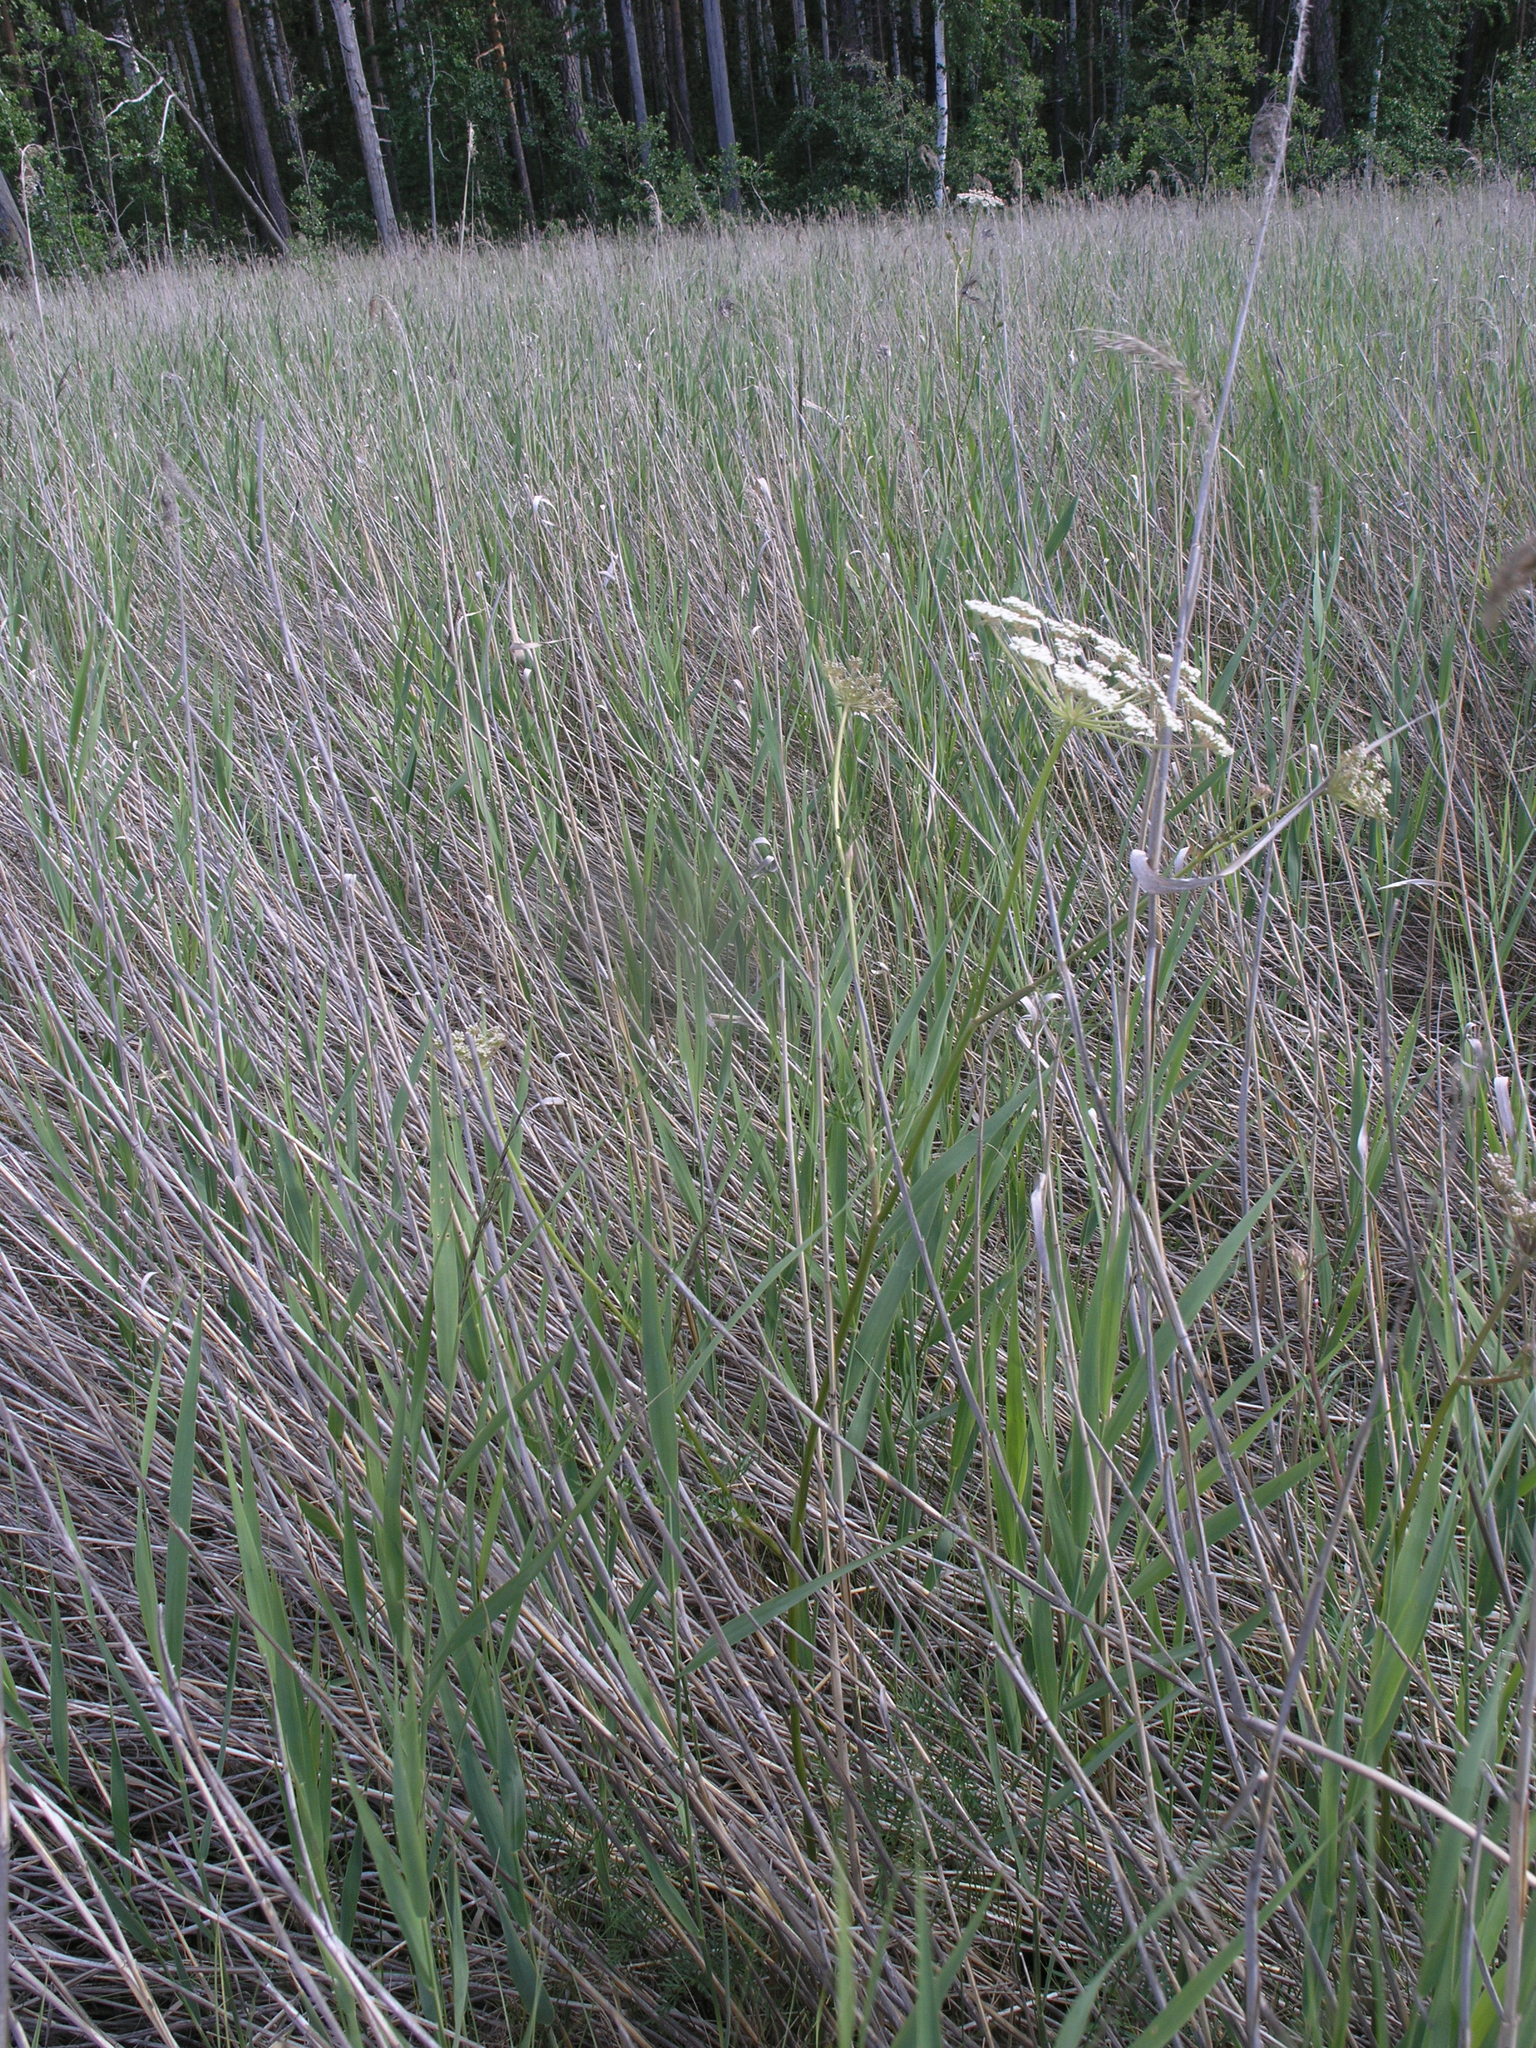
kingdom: Plantae
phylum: Tracheophyta
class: Liliopsida
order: Poales
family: Poaceae
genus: Phragmites
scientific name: Phragmites australis
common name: Common reed
